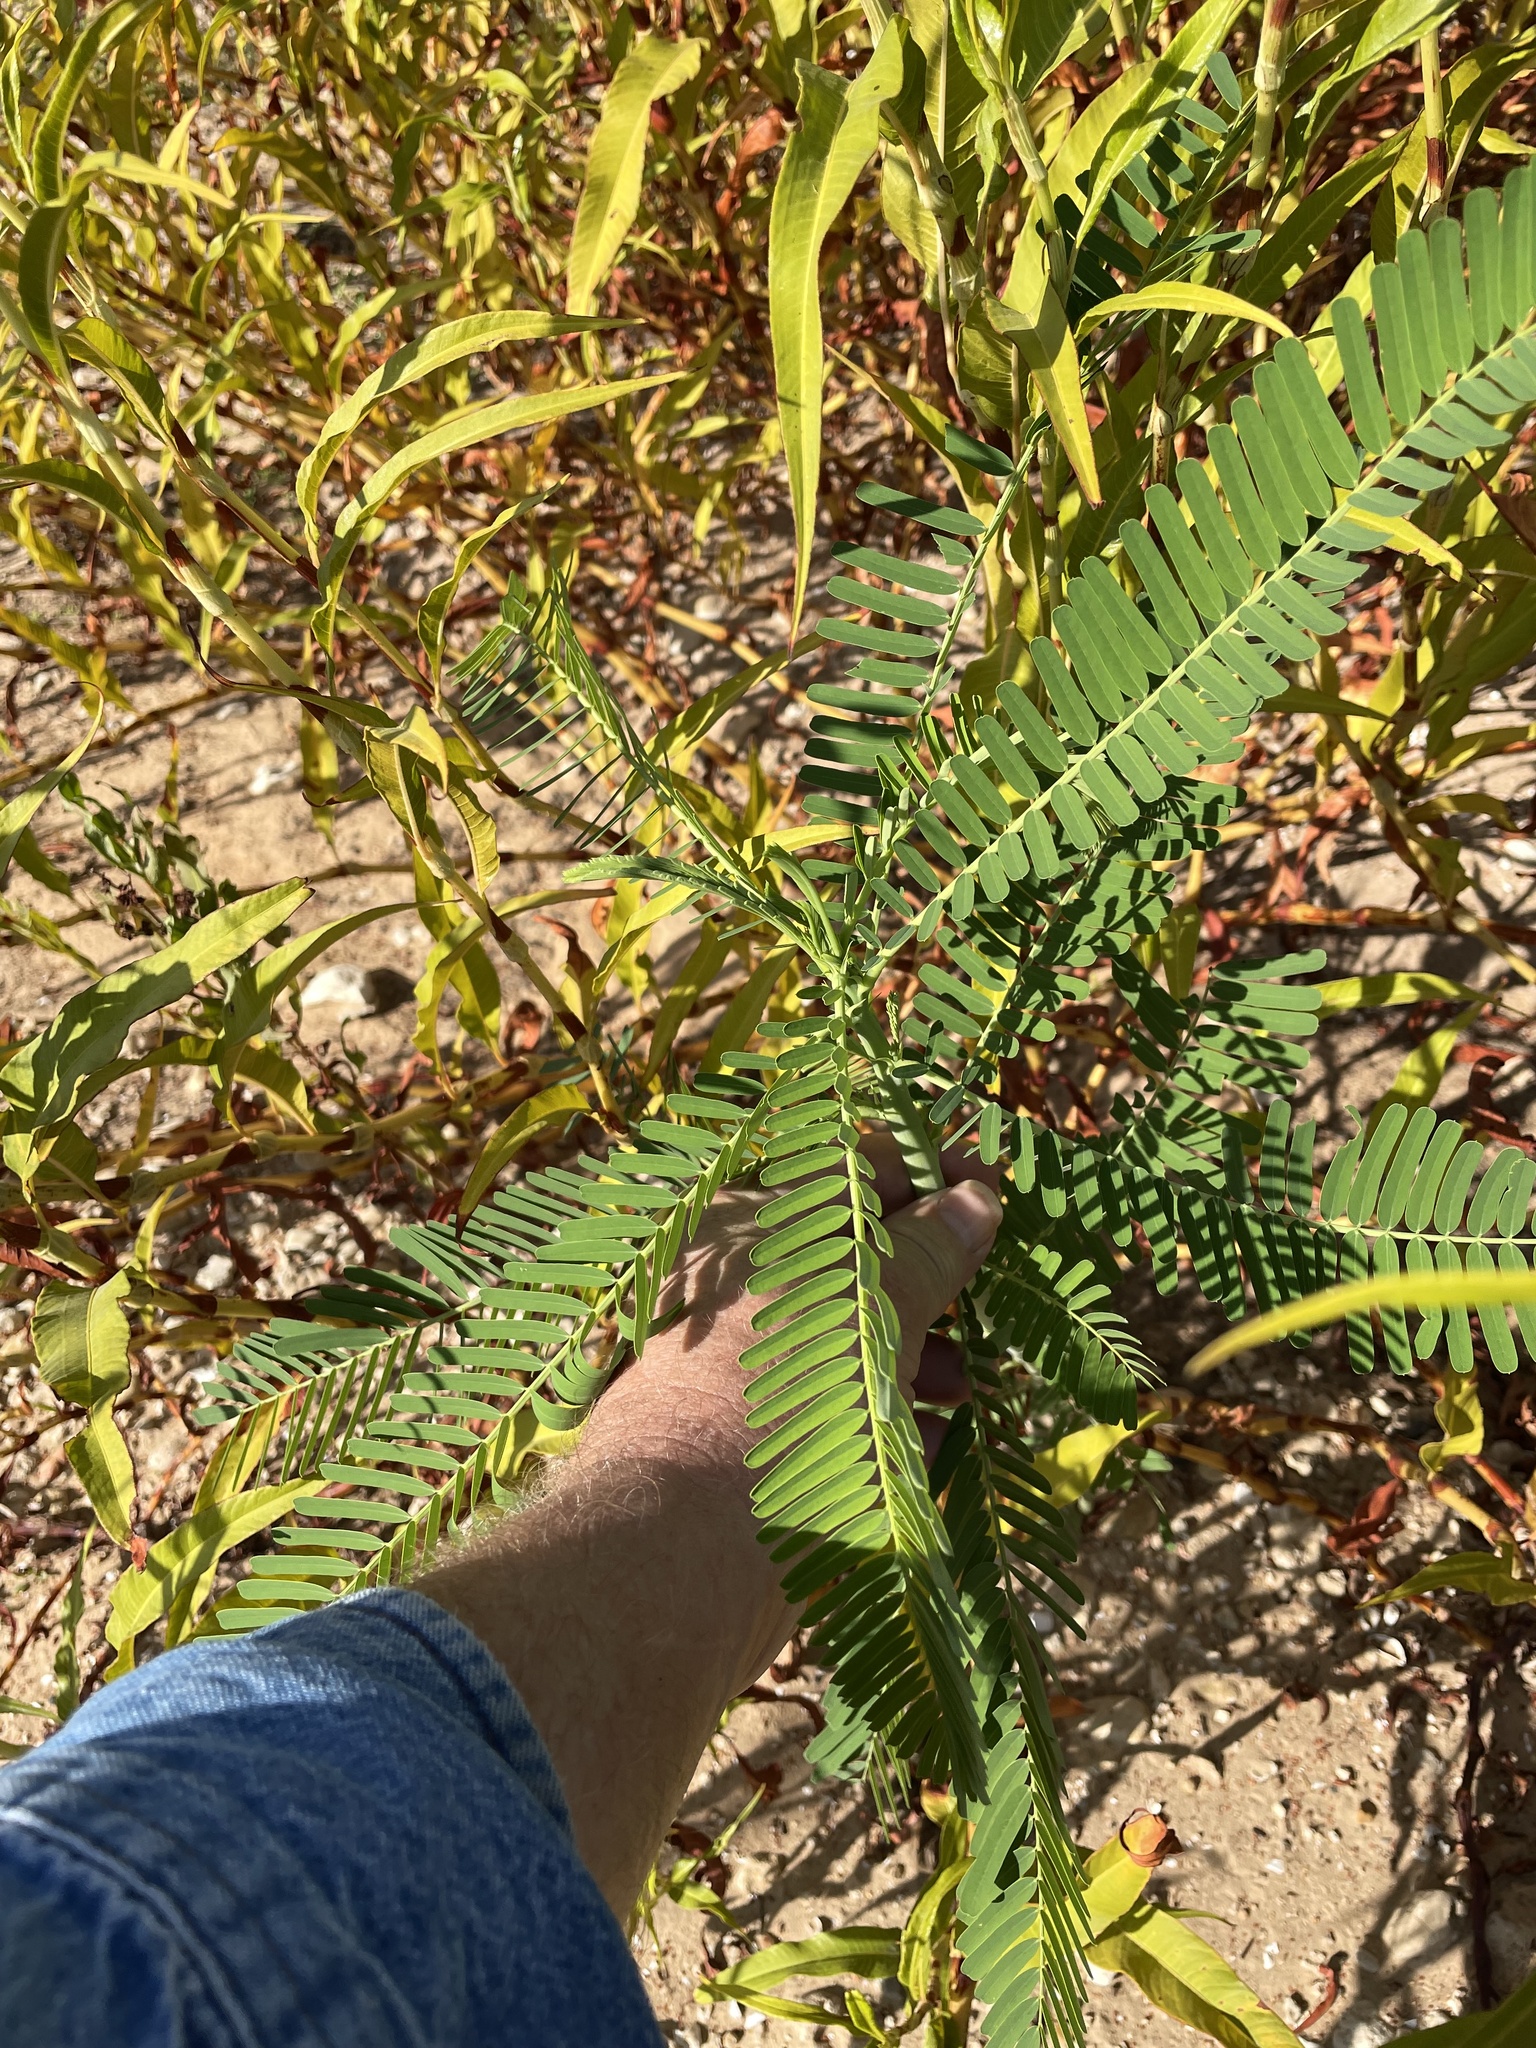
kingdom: Plantae
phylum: Tracheophyta
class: Magnoliopsida
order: Fabales
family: Fabaceae
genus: Sesbania
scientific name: Sesbania herbacea
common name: Bigpod sesbania
